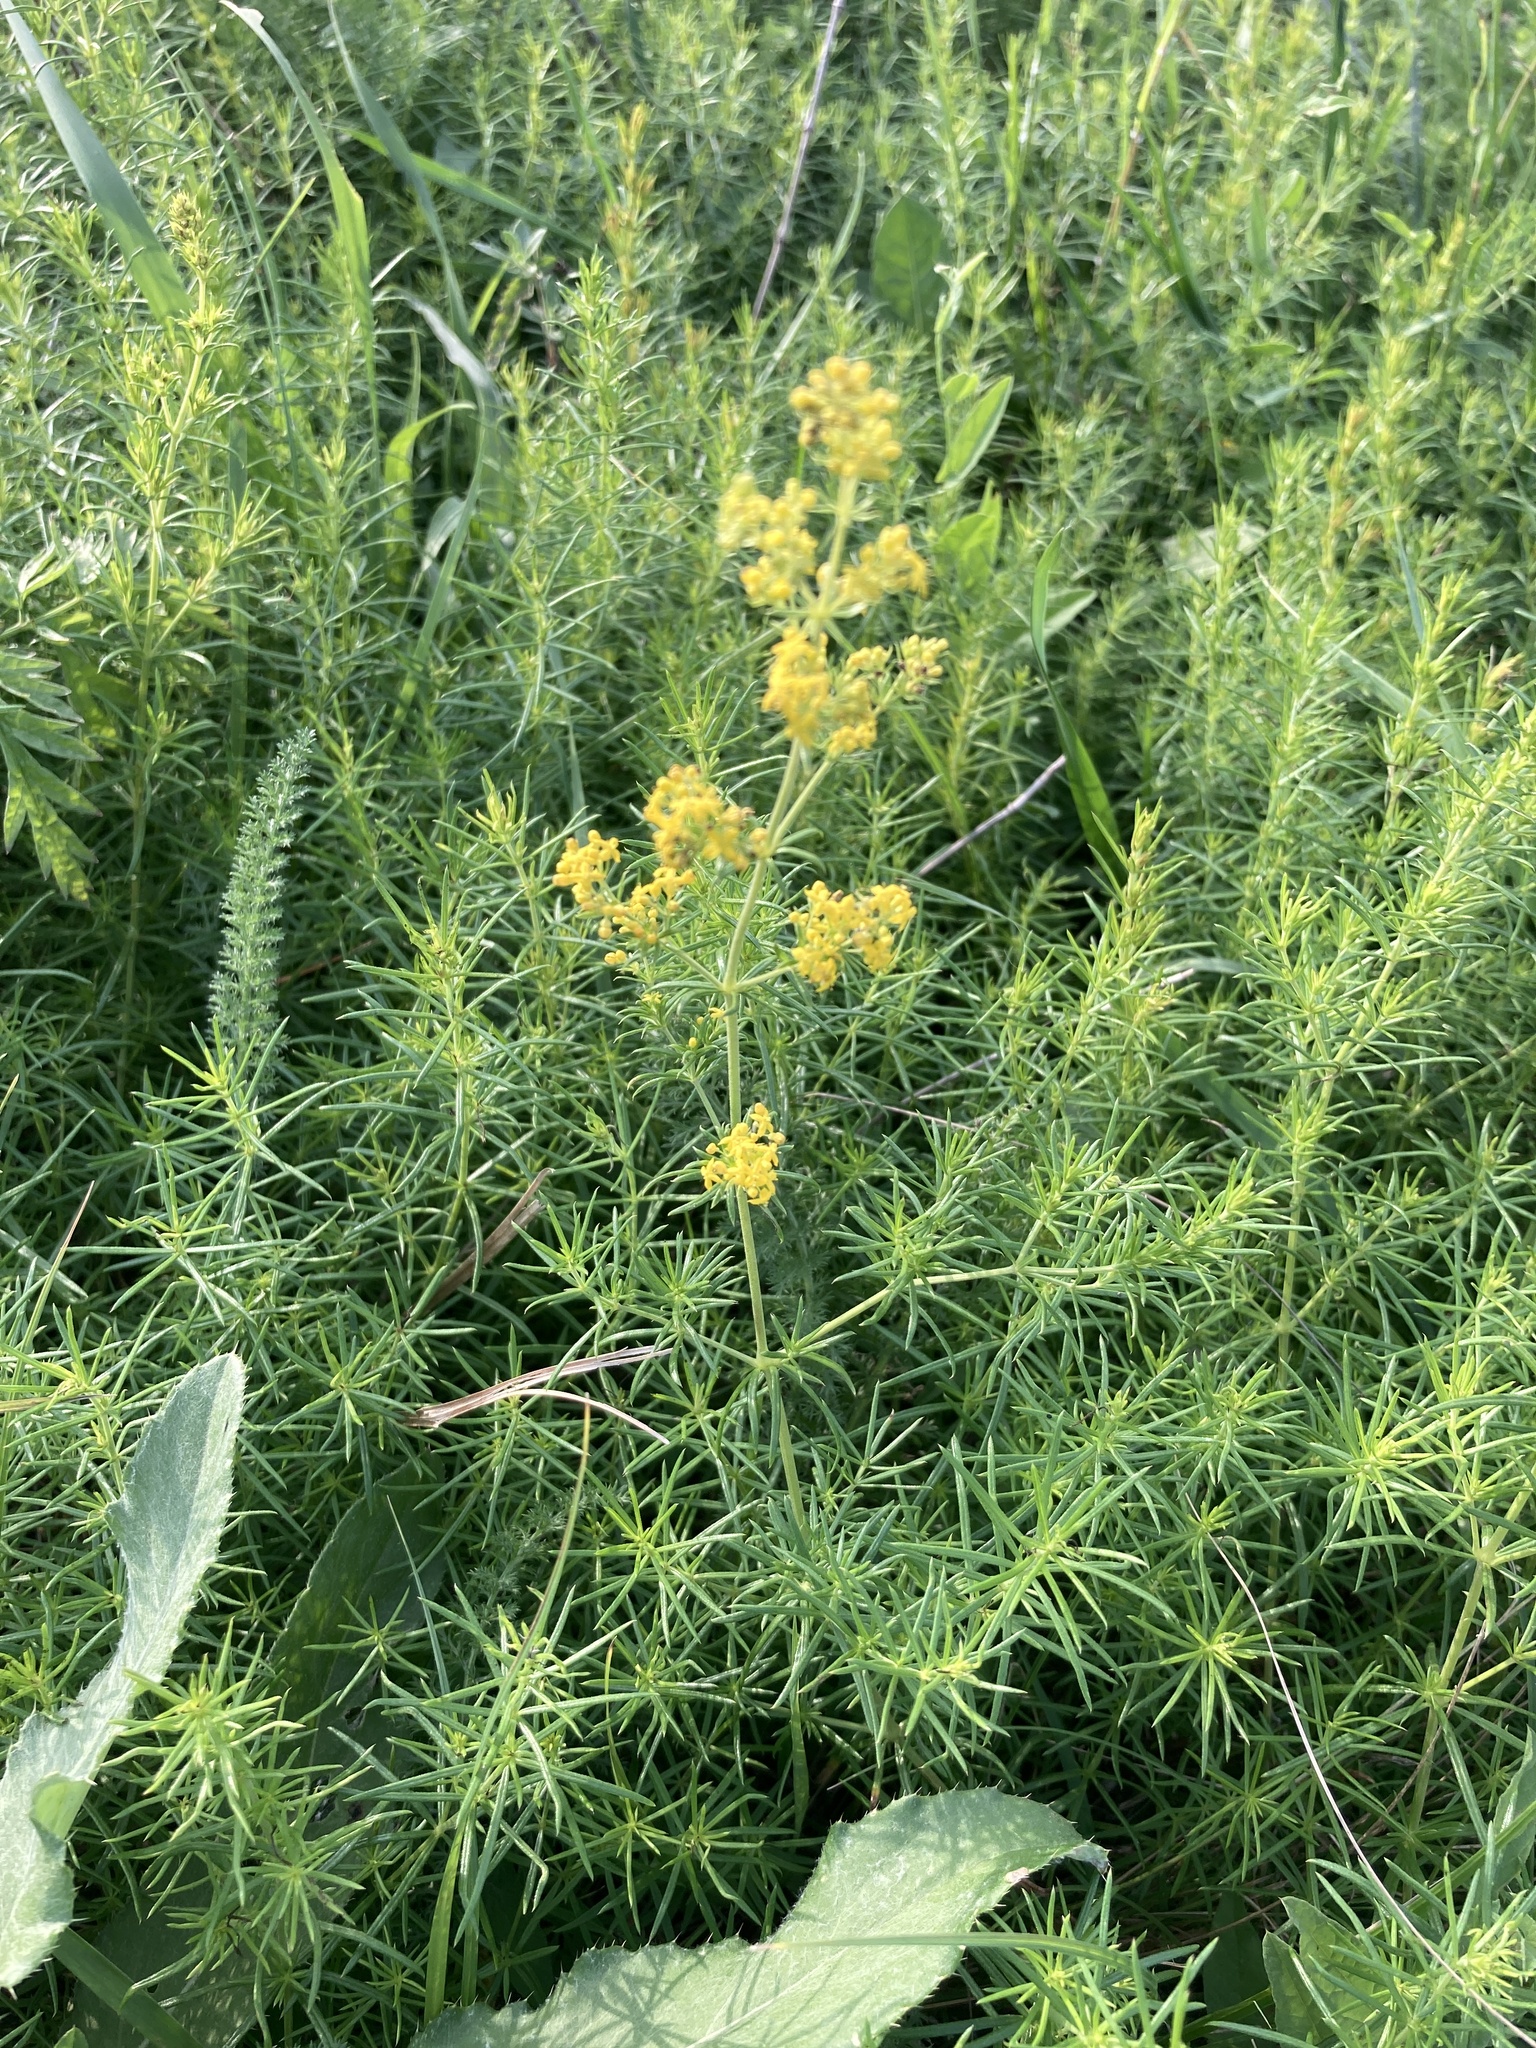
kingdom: Plantae
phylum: Tracheophyta
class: Magnoliopsida
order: Gentianales
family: Rubiaceae
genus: Galium
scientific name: Galium verum
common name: Lady's bedstraw
